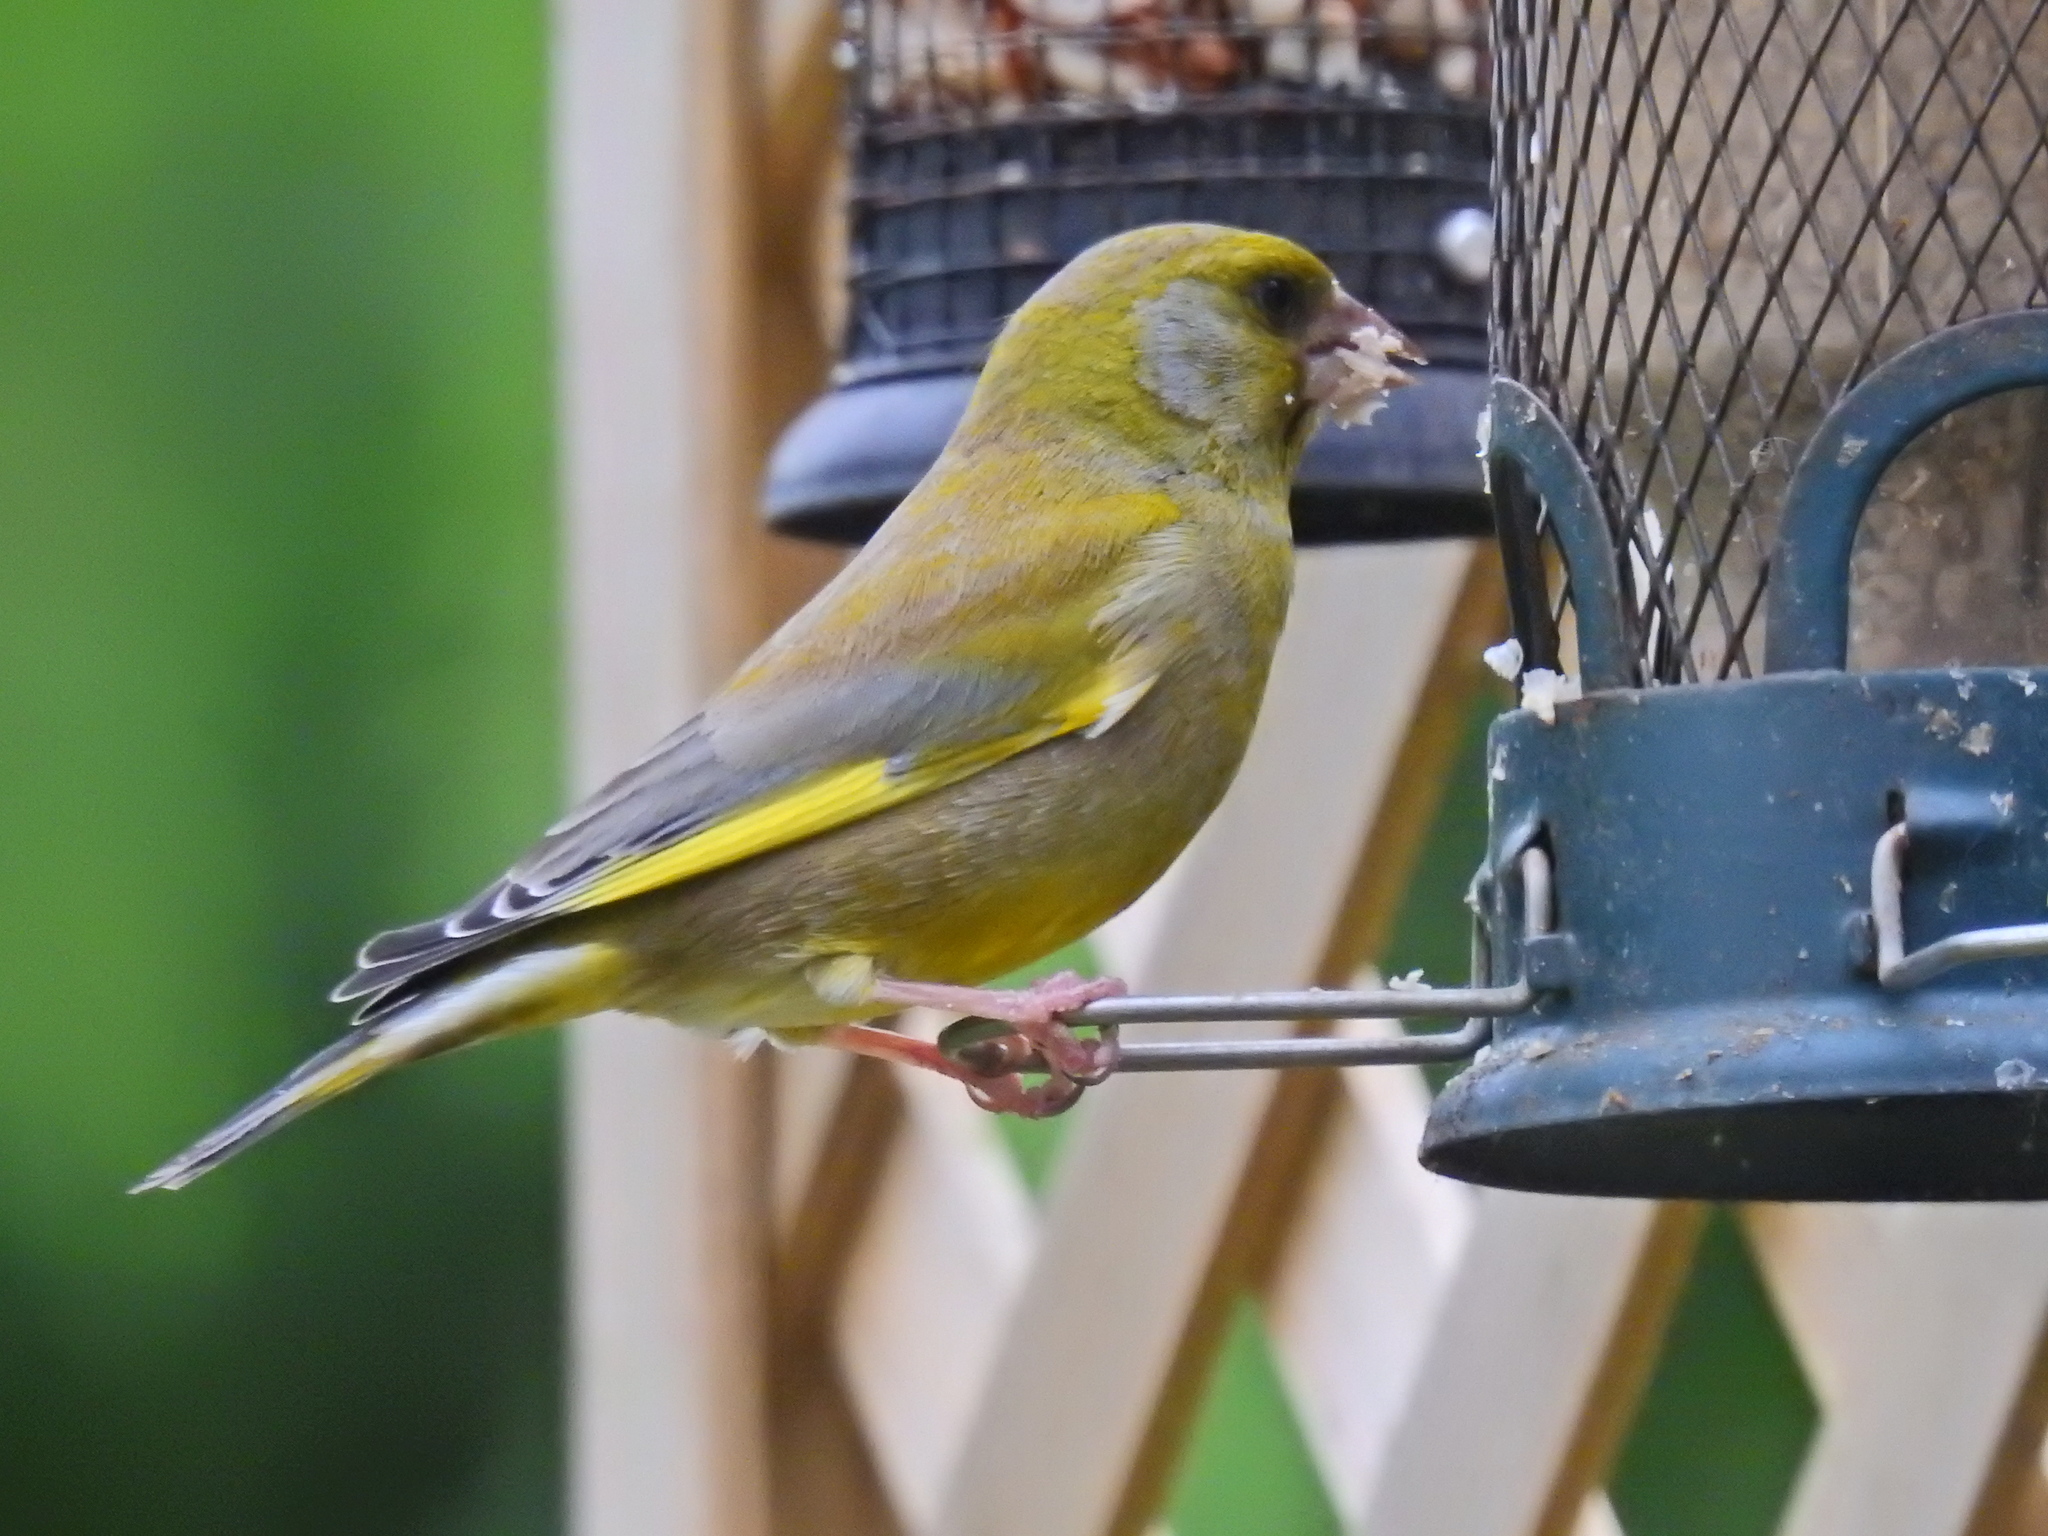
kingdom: Plantae
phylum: Tracheophyta
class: Liliopsida
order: Poales
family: Poaceae
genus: Chloris
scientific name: Chloris chloris
